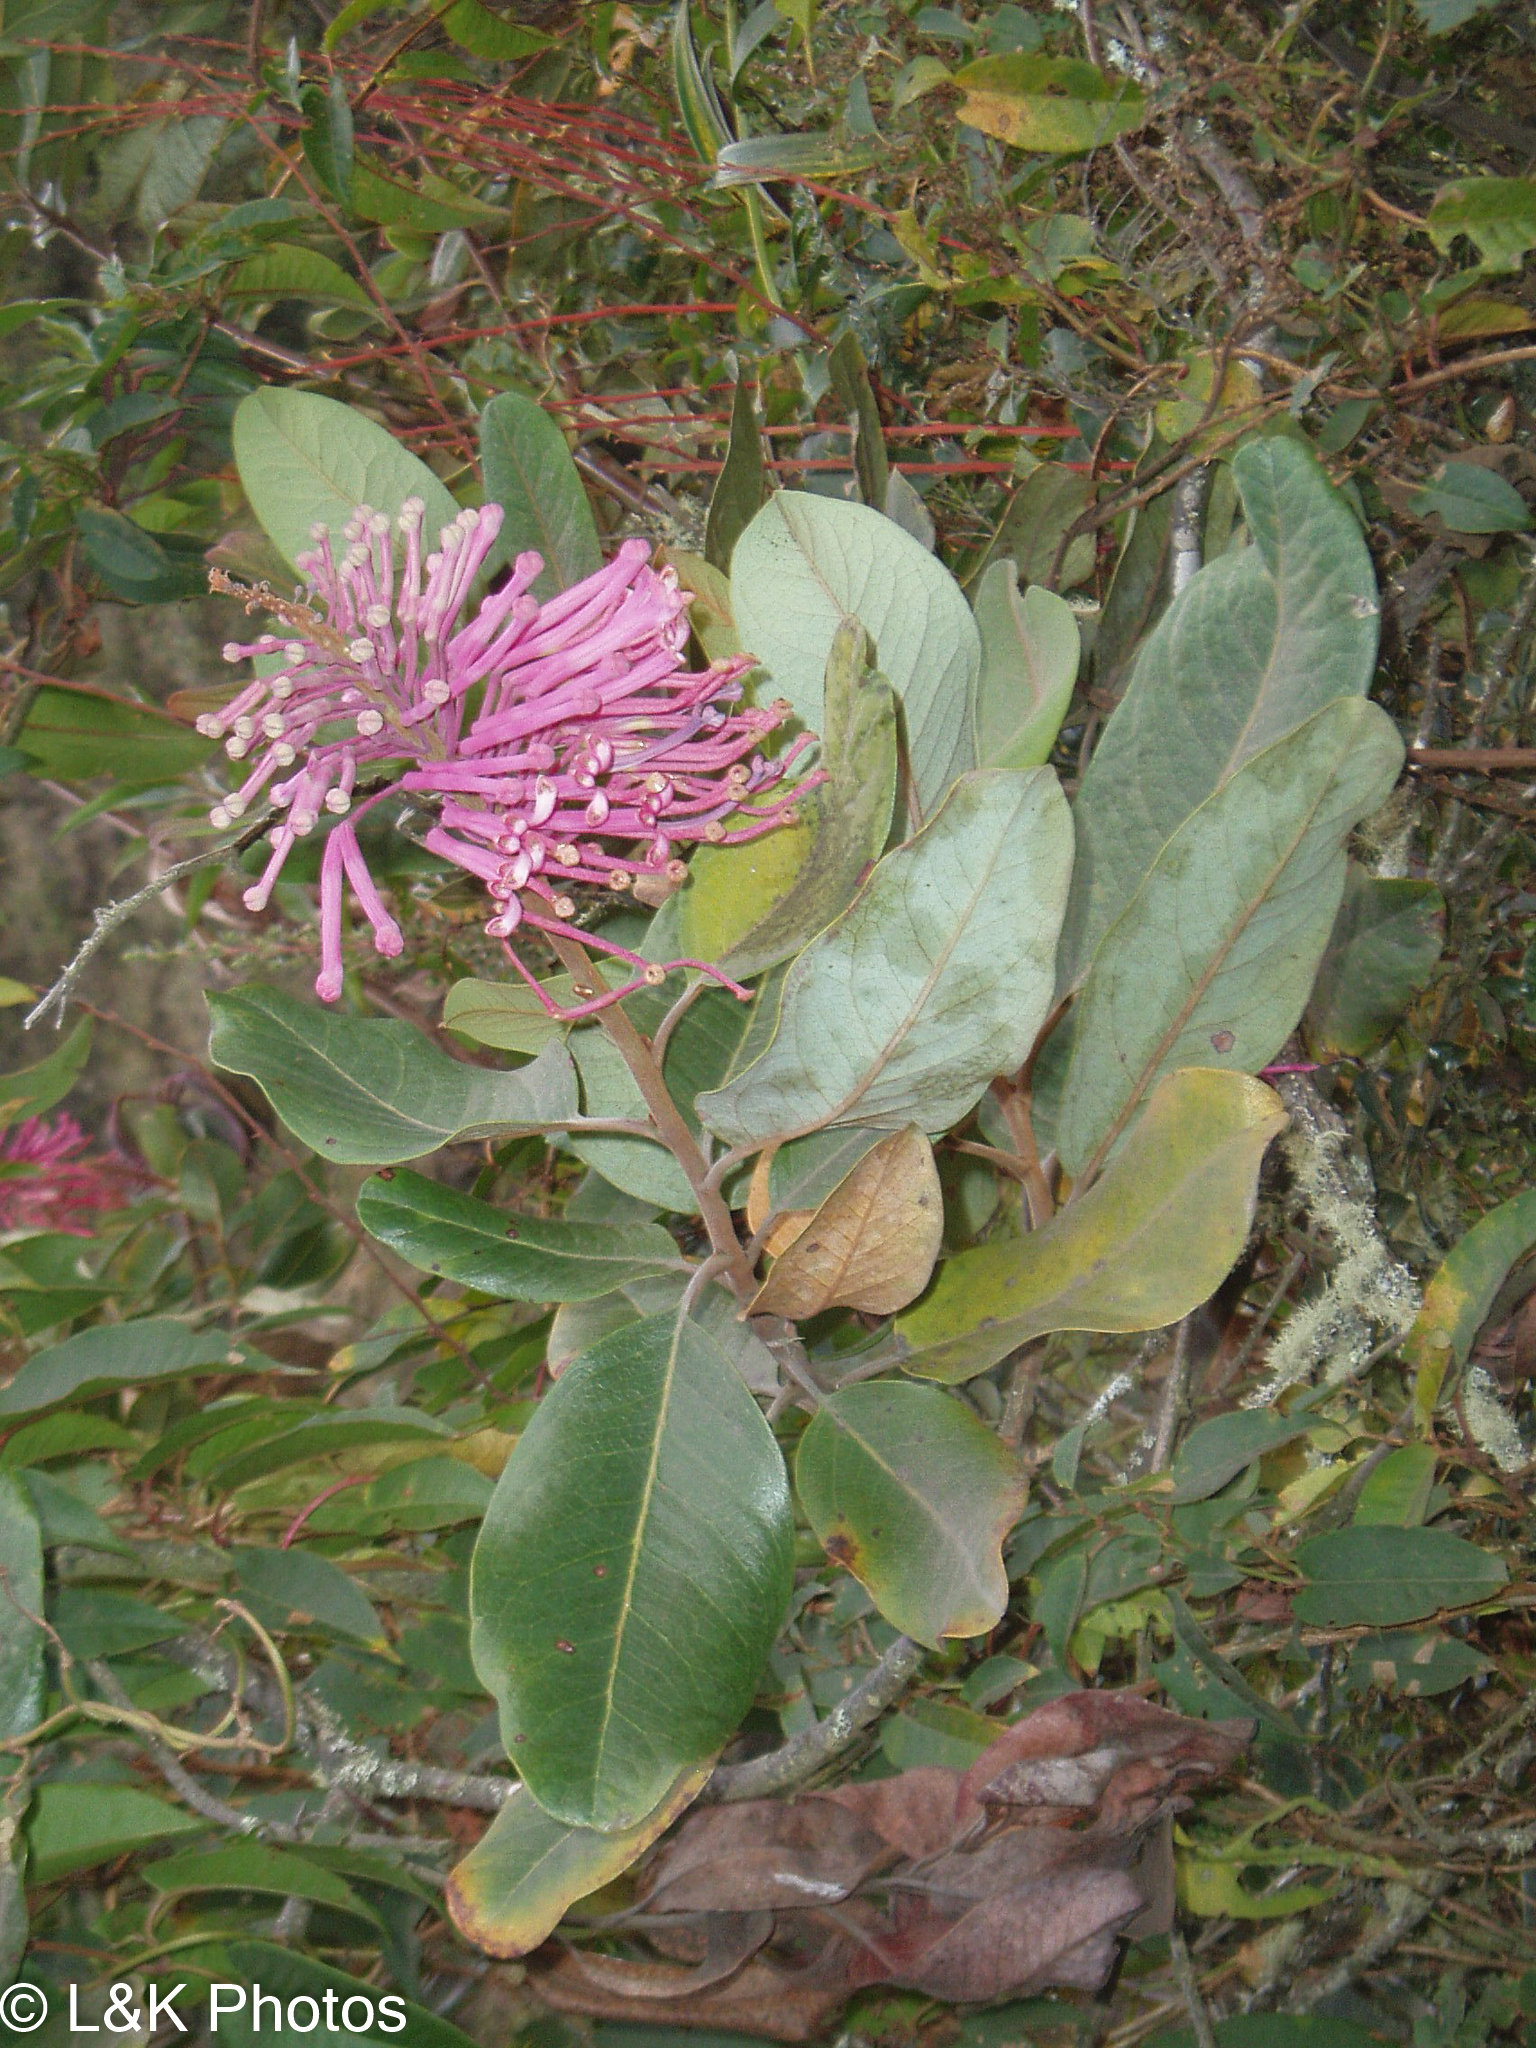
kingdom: Plantae
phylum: Tracheophyta
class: Magnoliopsida
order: Proteales
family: Proteaceae
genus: Oreocallis
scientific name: Oreocallis grandiflora
